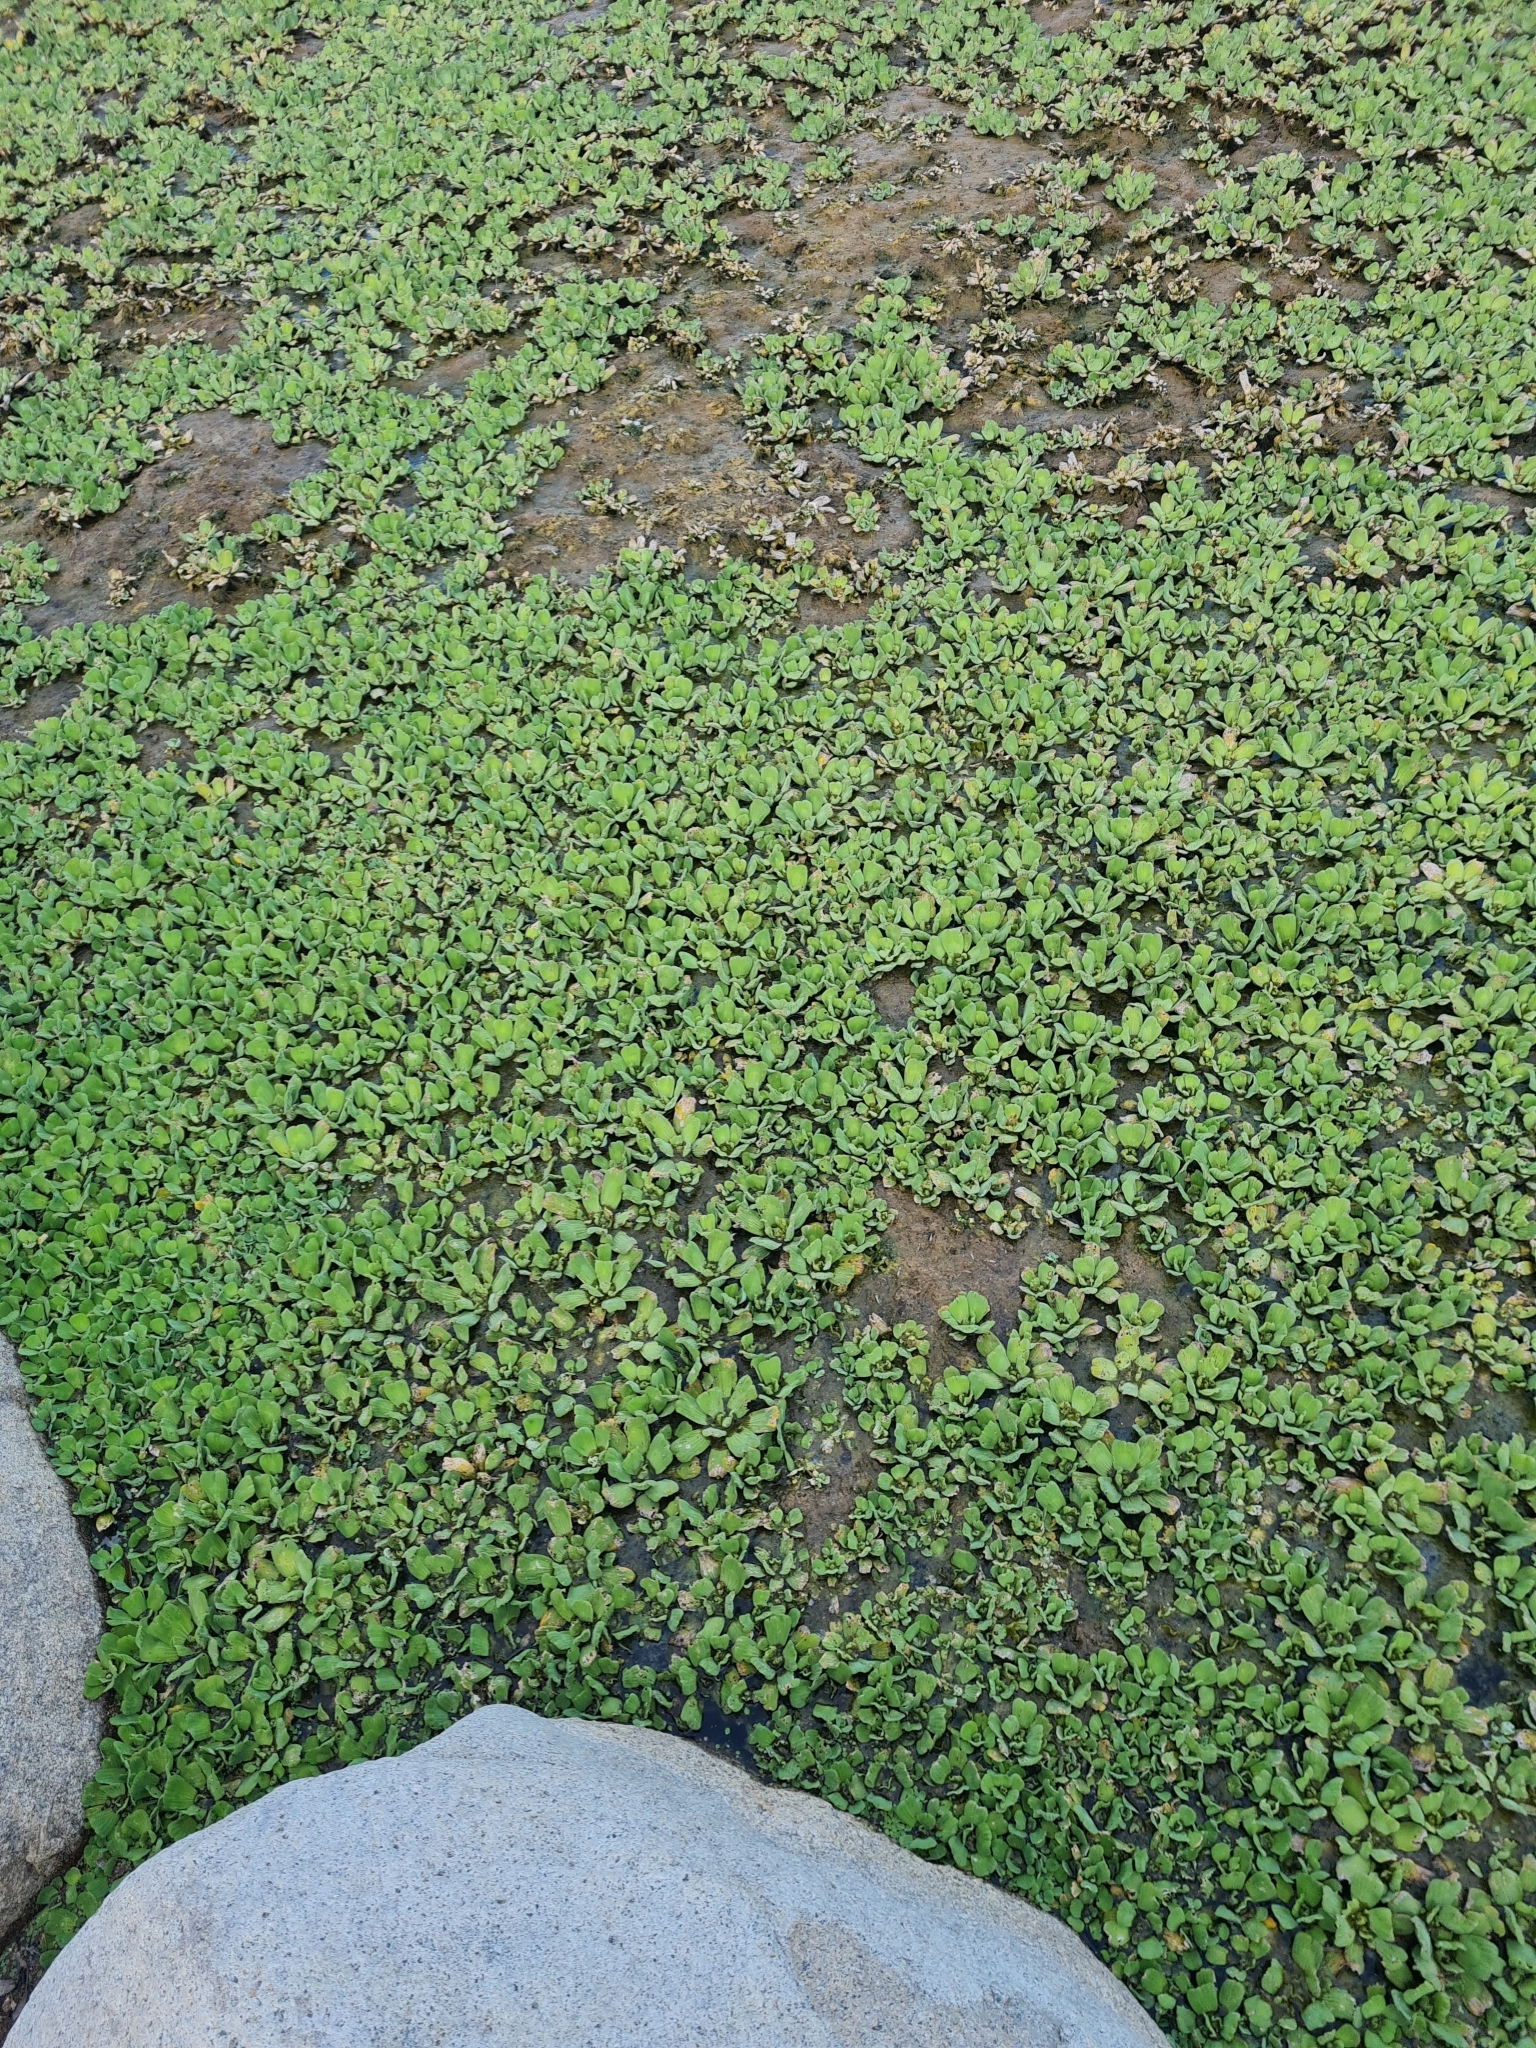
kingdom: Plantae
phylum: Tracheophyta
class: Liliopsida
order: Alismatales
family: Araceae
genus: Pistia
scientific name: Pistia stratiotes
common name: Water lettuce
